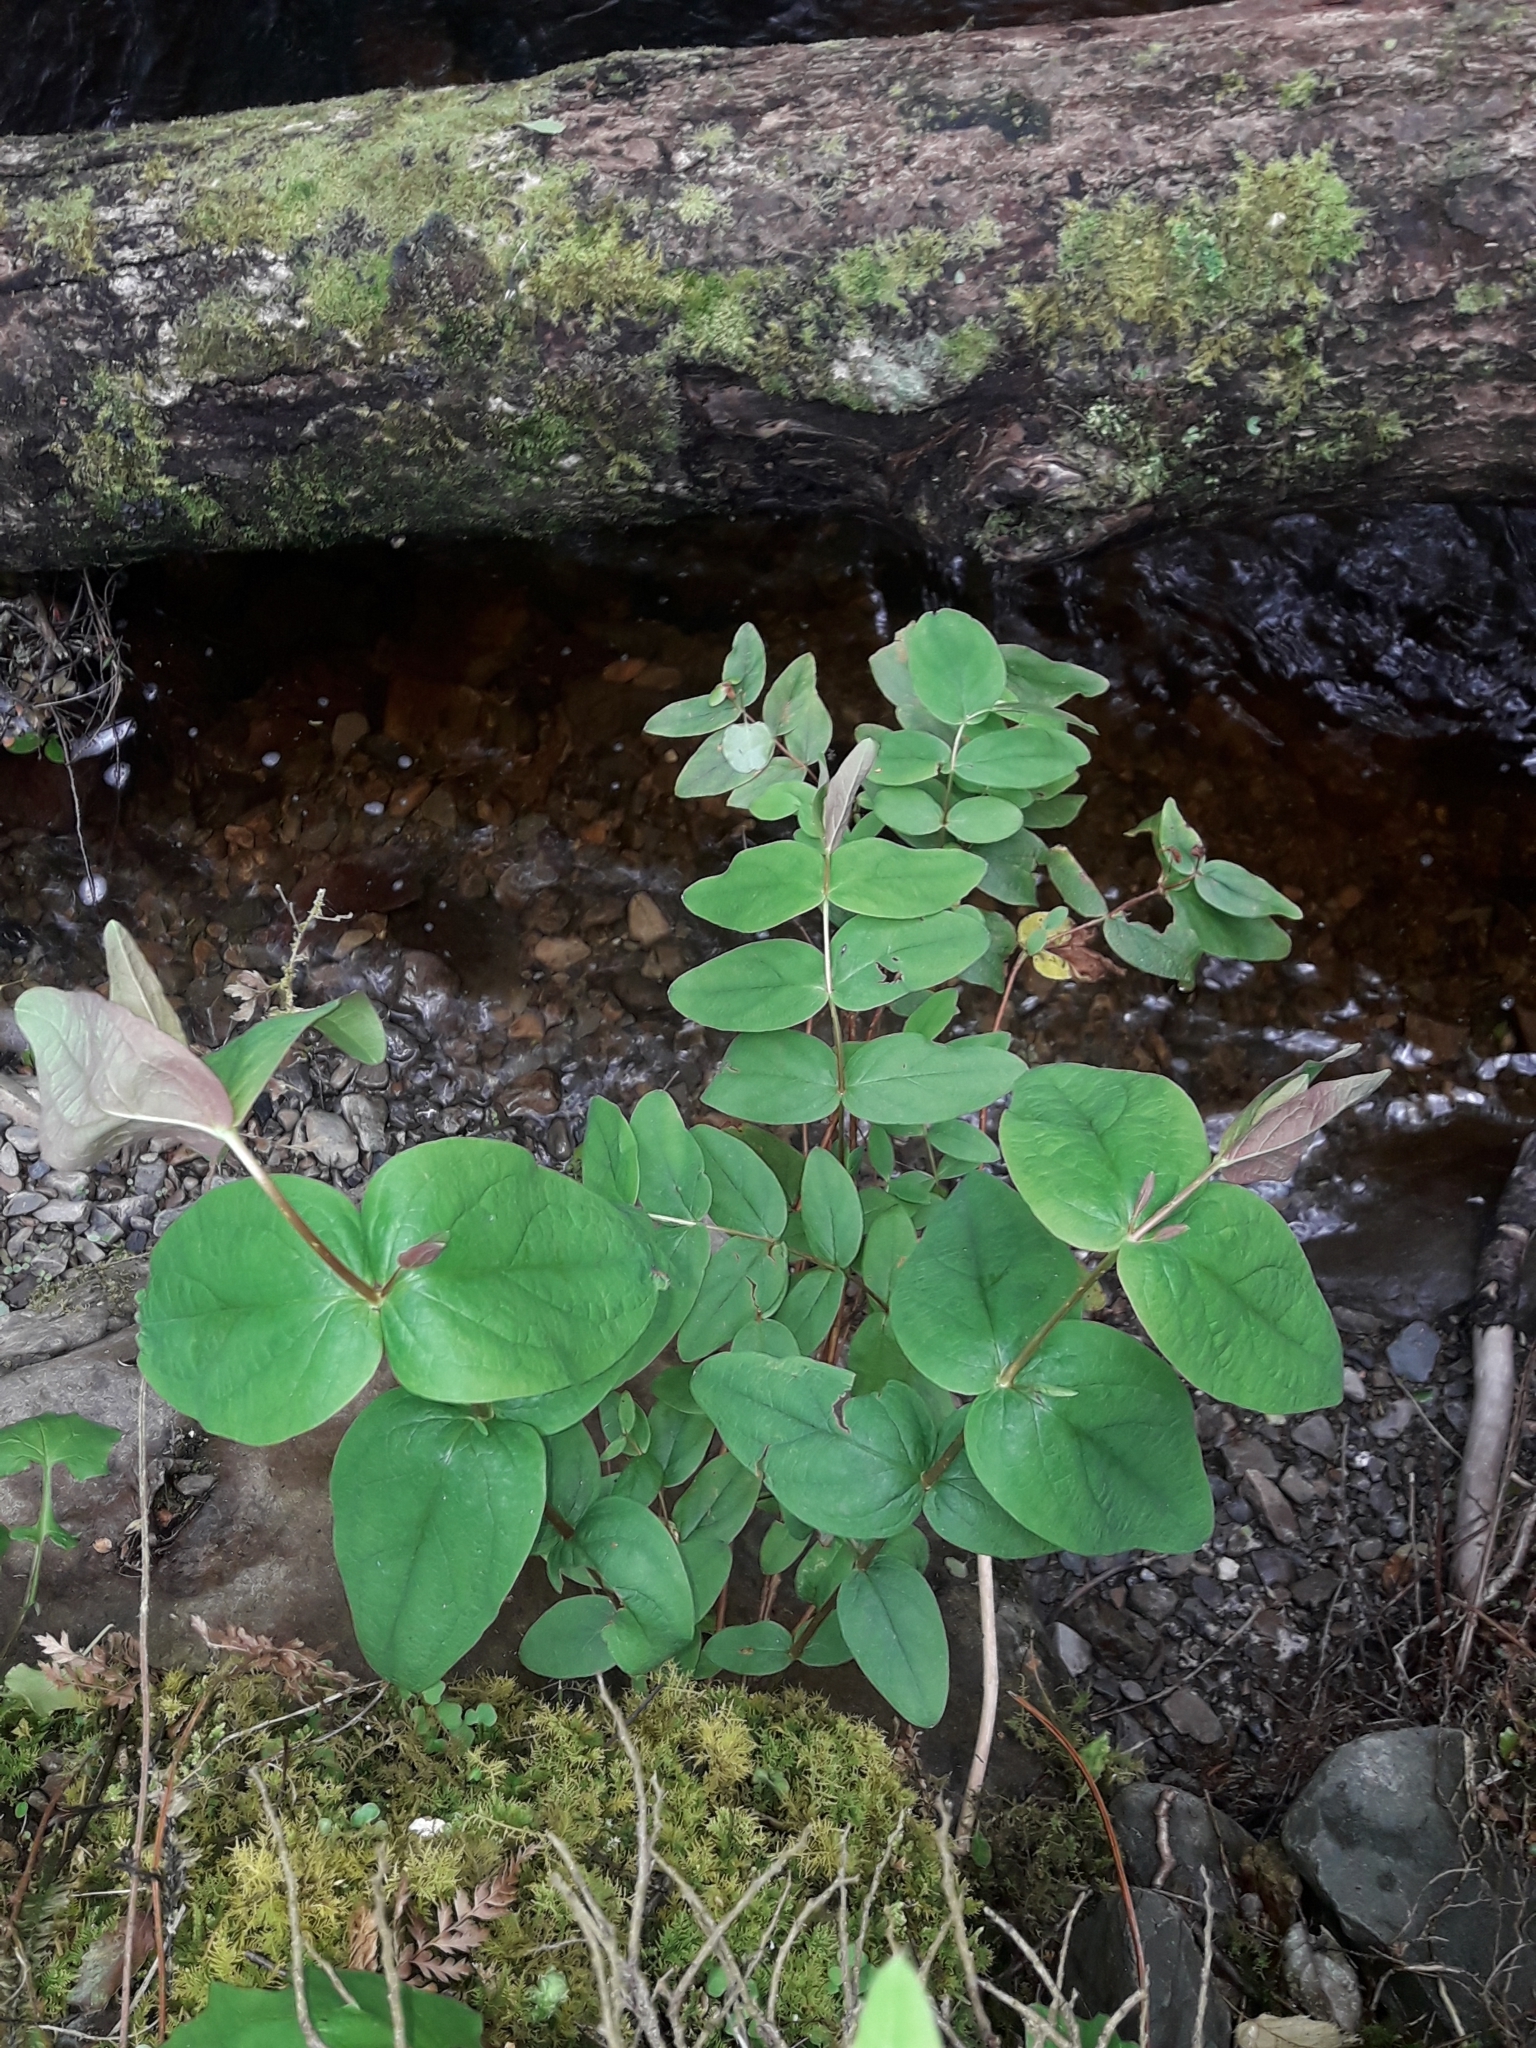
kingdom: Plantae
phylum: Tracheophyta
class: Magnoliopsida
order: Malpighiales
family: Hypericaceae
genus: Hypericum
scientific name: Hypericum androsaemum
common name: Sweet-amber
